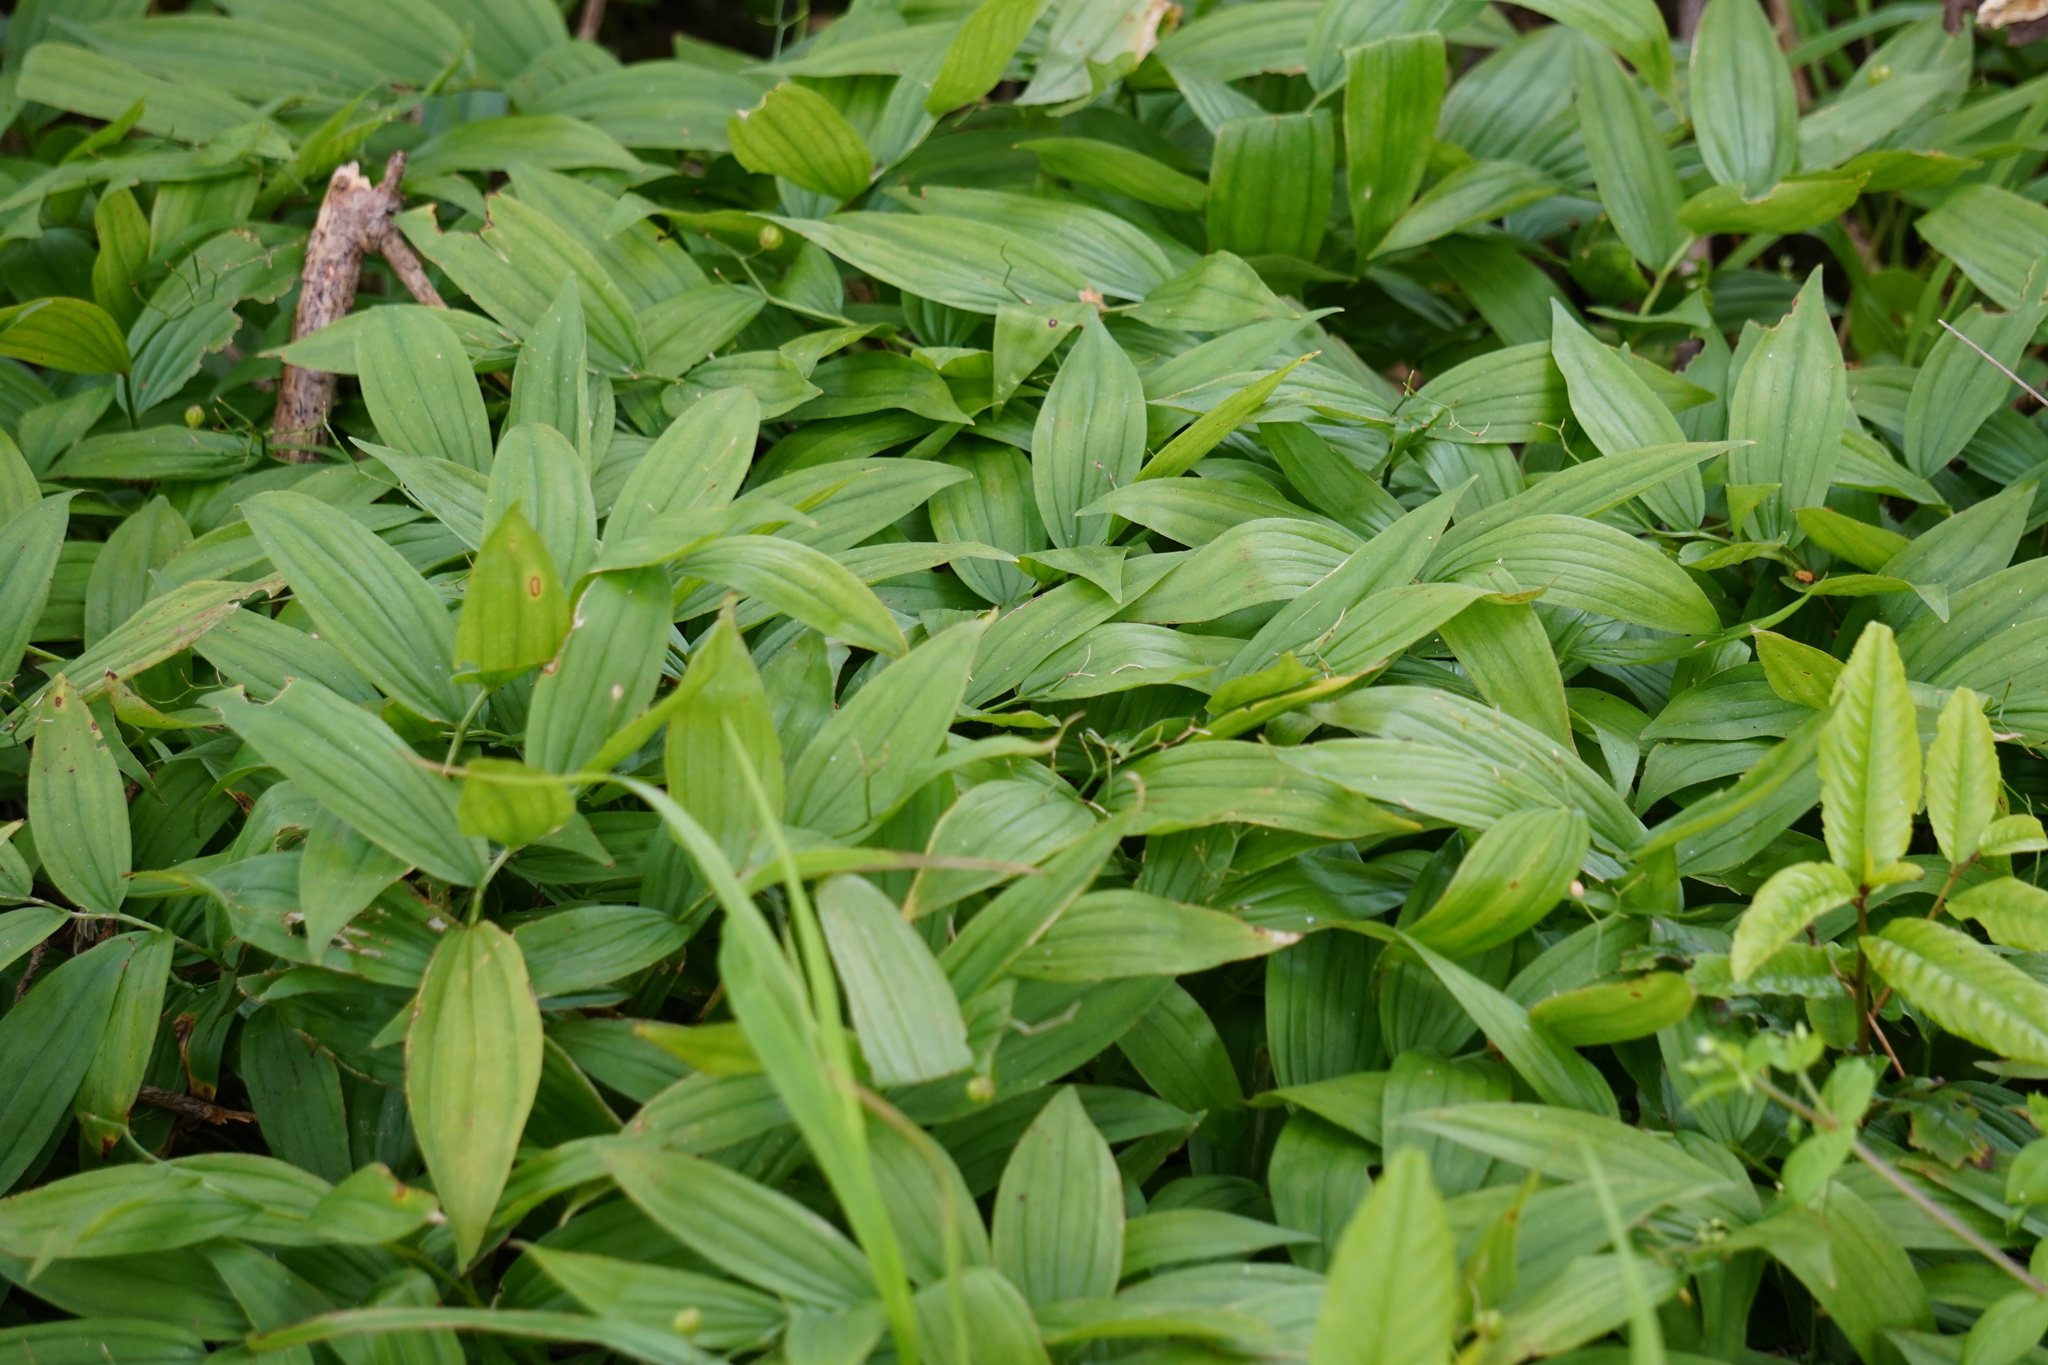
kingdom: Plantae
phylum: Tracheophyta
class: Liliopsida
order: Asparagales
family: Asparagaceae
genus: Maianthemum
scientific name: Maianthemum stellatum
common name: Little false solomon's seal
